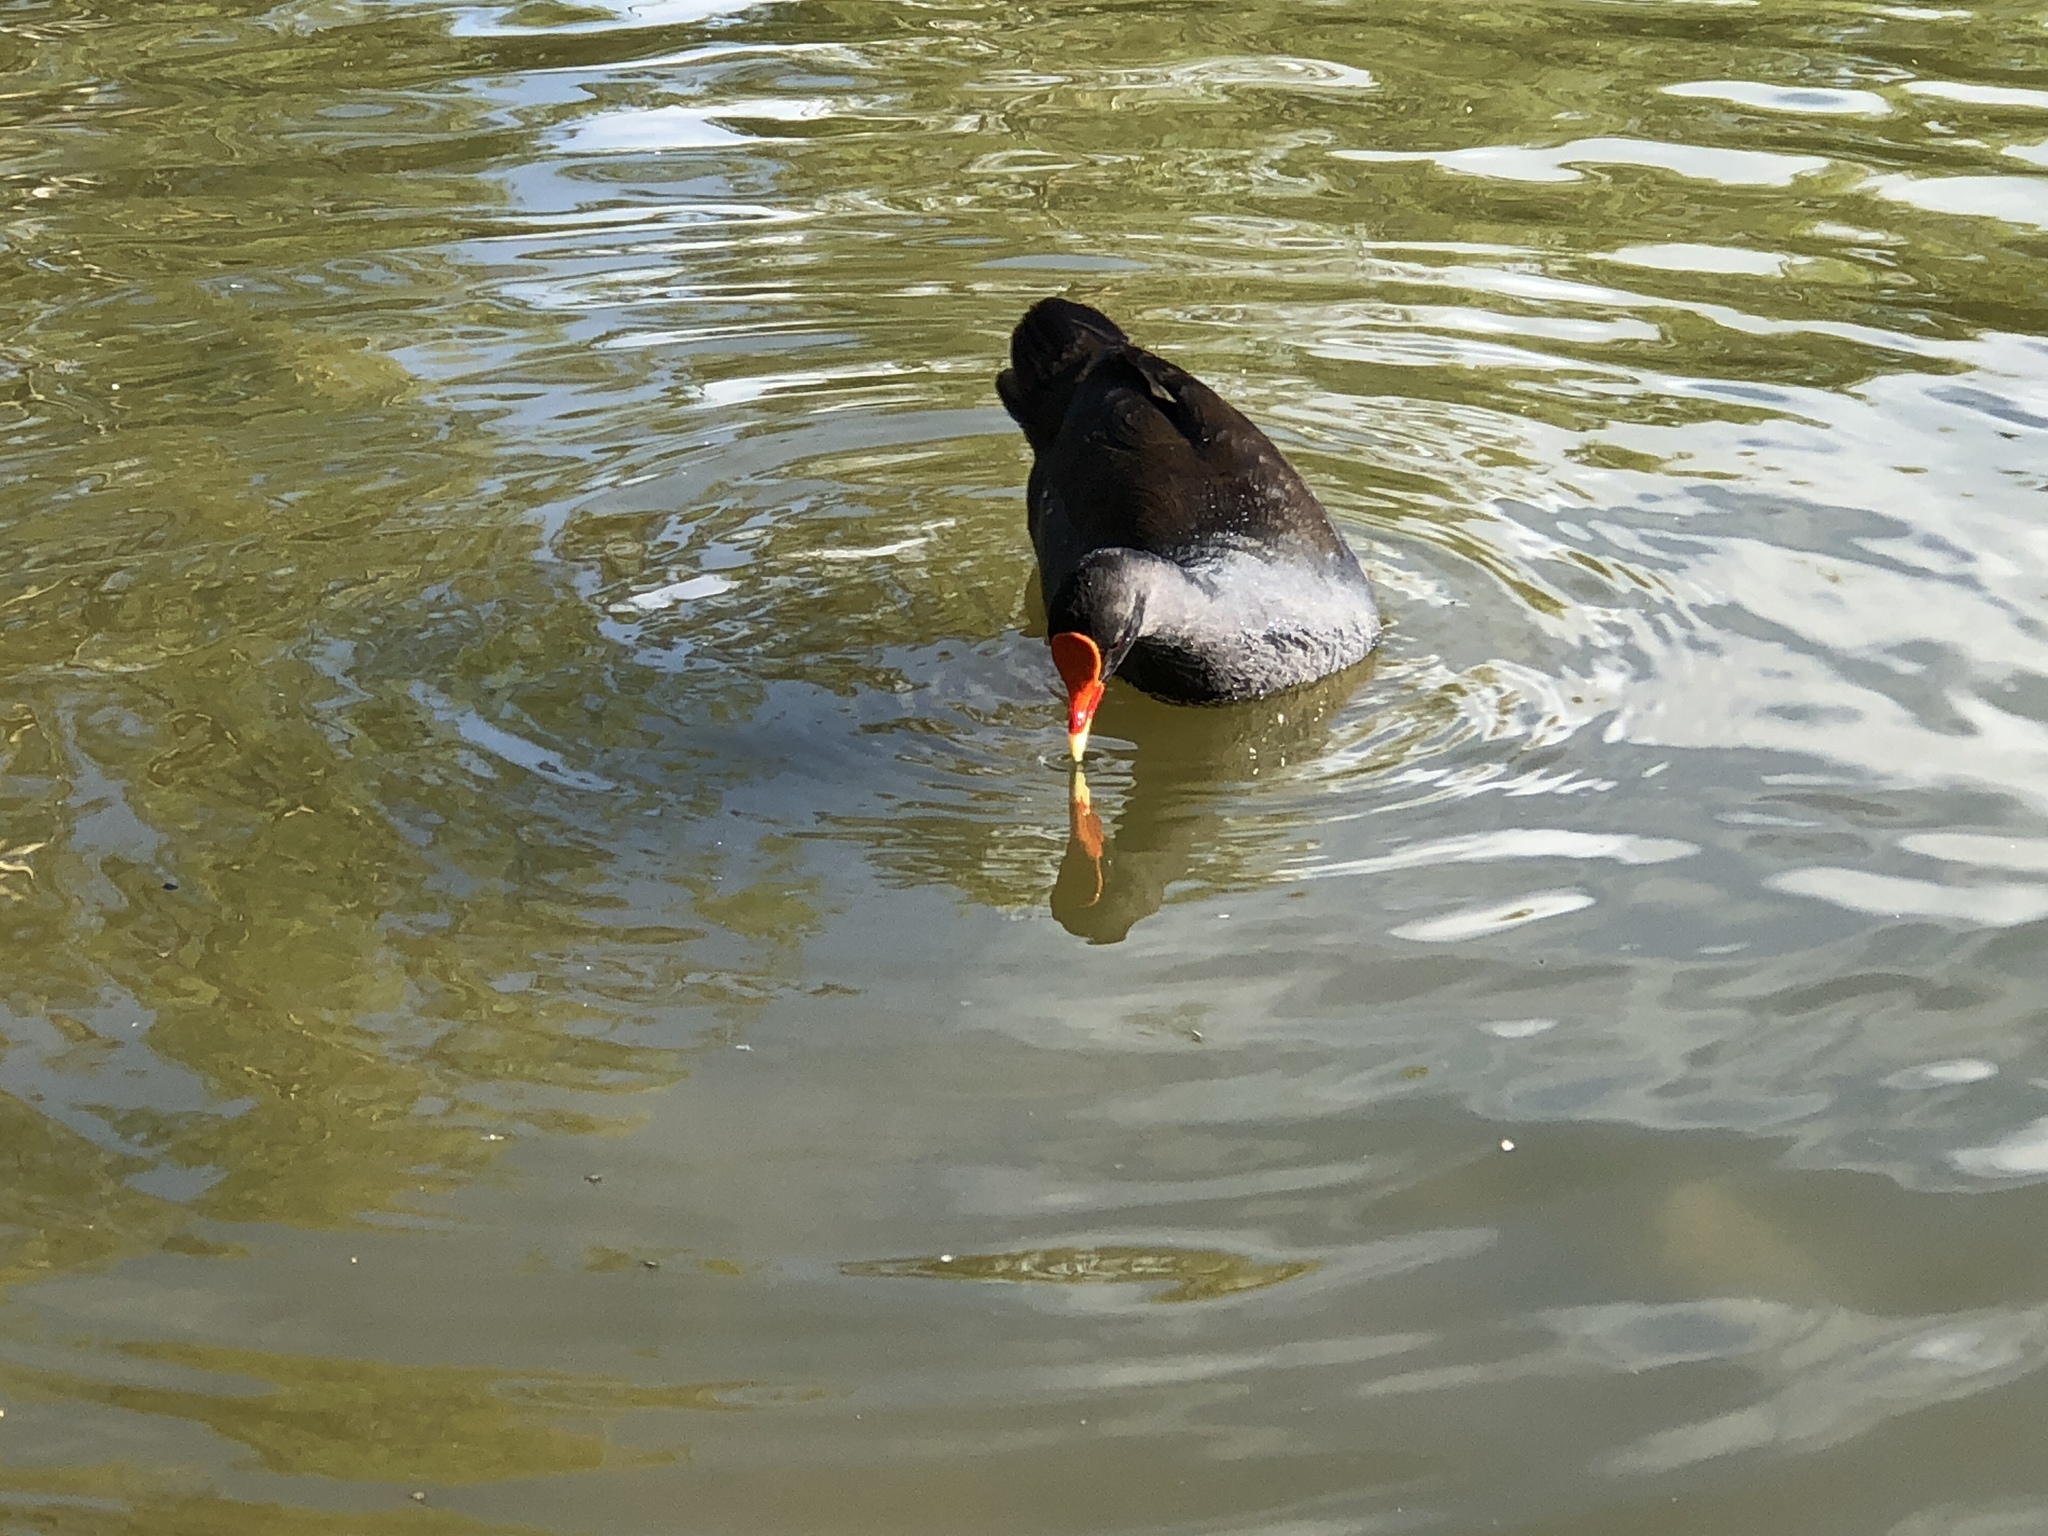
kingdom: Animalia
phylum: Chordata
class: Aves
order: Gruiformes
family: Rallidae
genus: Gallinula
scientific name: Gallinula tenebrosa
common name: Dusky moorhen
